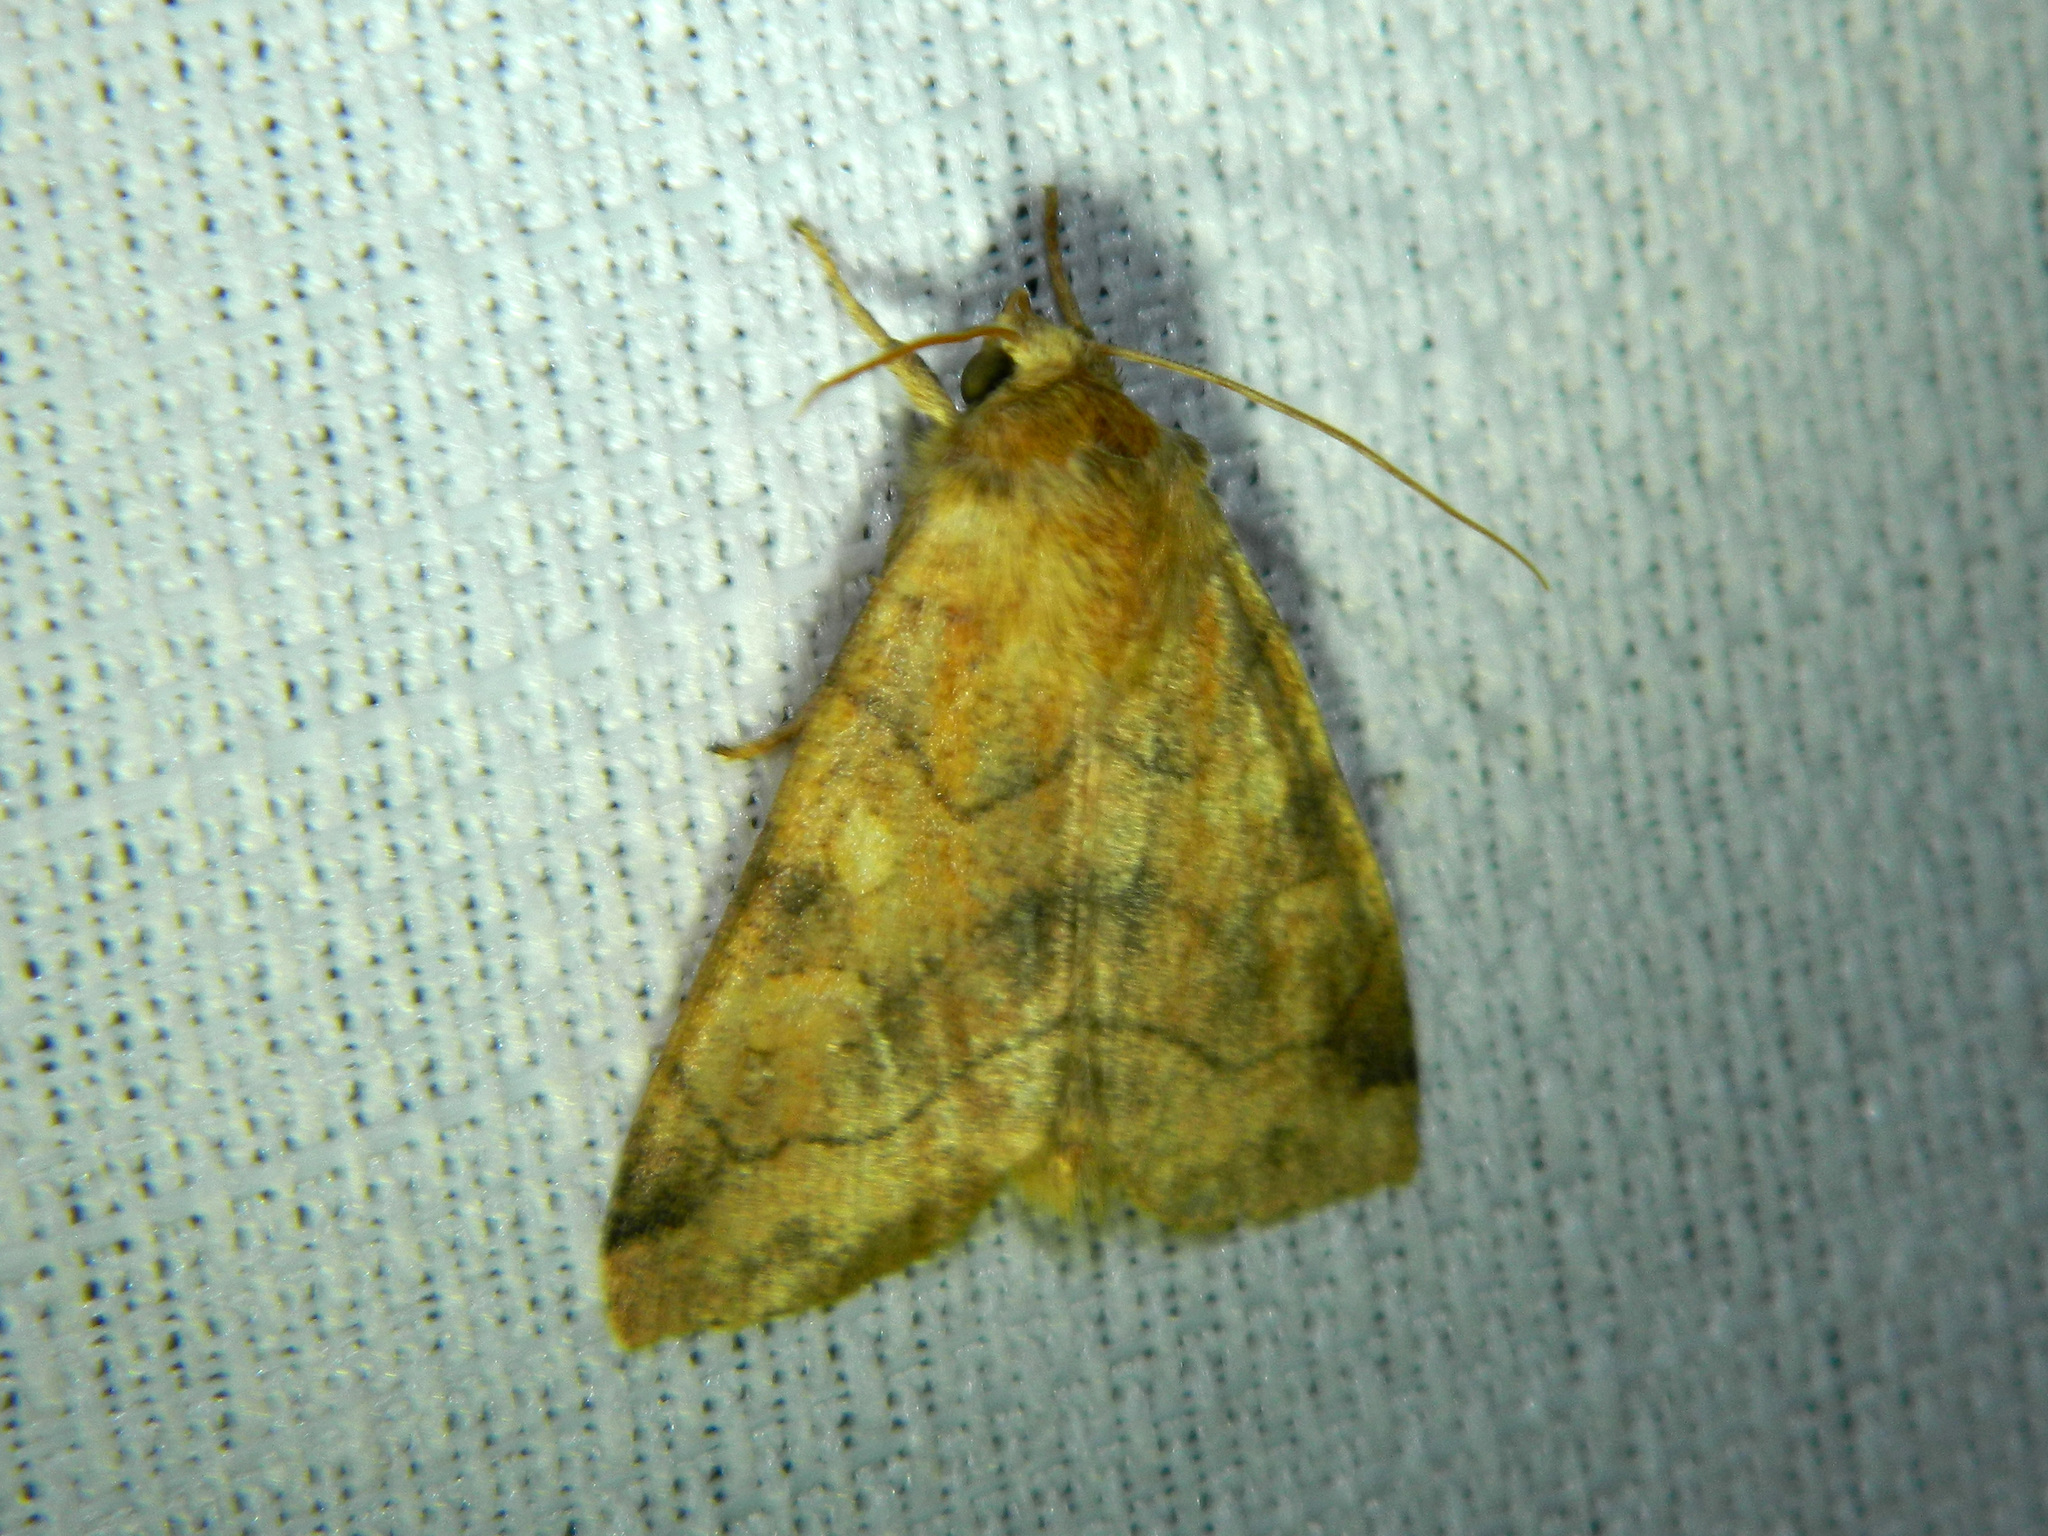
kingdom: Animalia
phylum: Arthropoda
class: Insecta
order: Lepidoptera
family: Noctuidae
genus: Enargia
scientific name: Enargia decolor
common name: Aspen twoleaf tier moth
